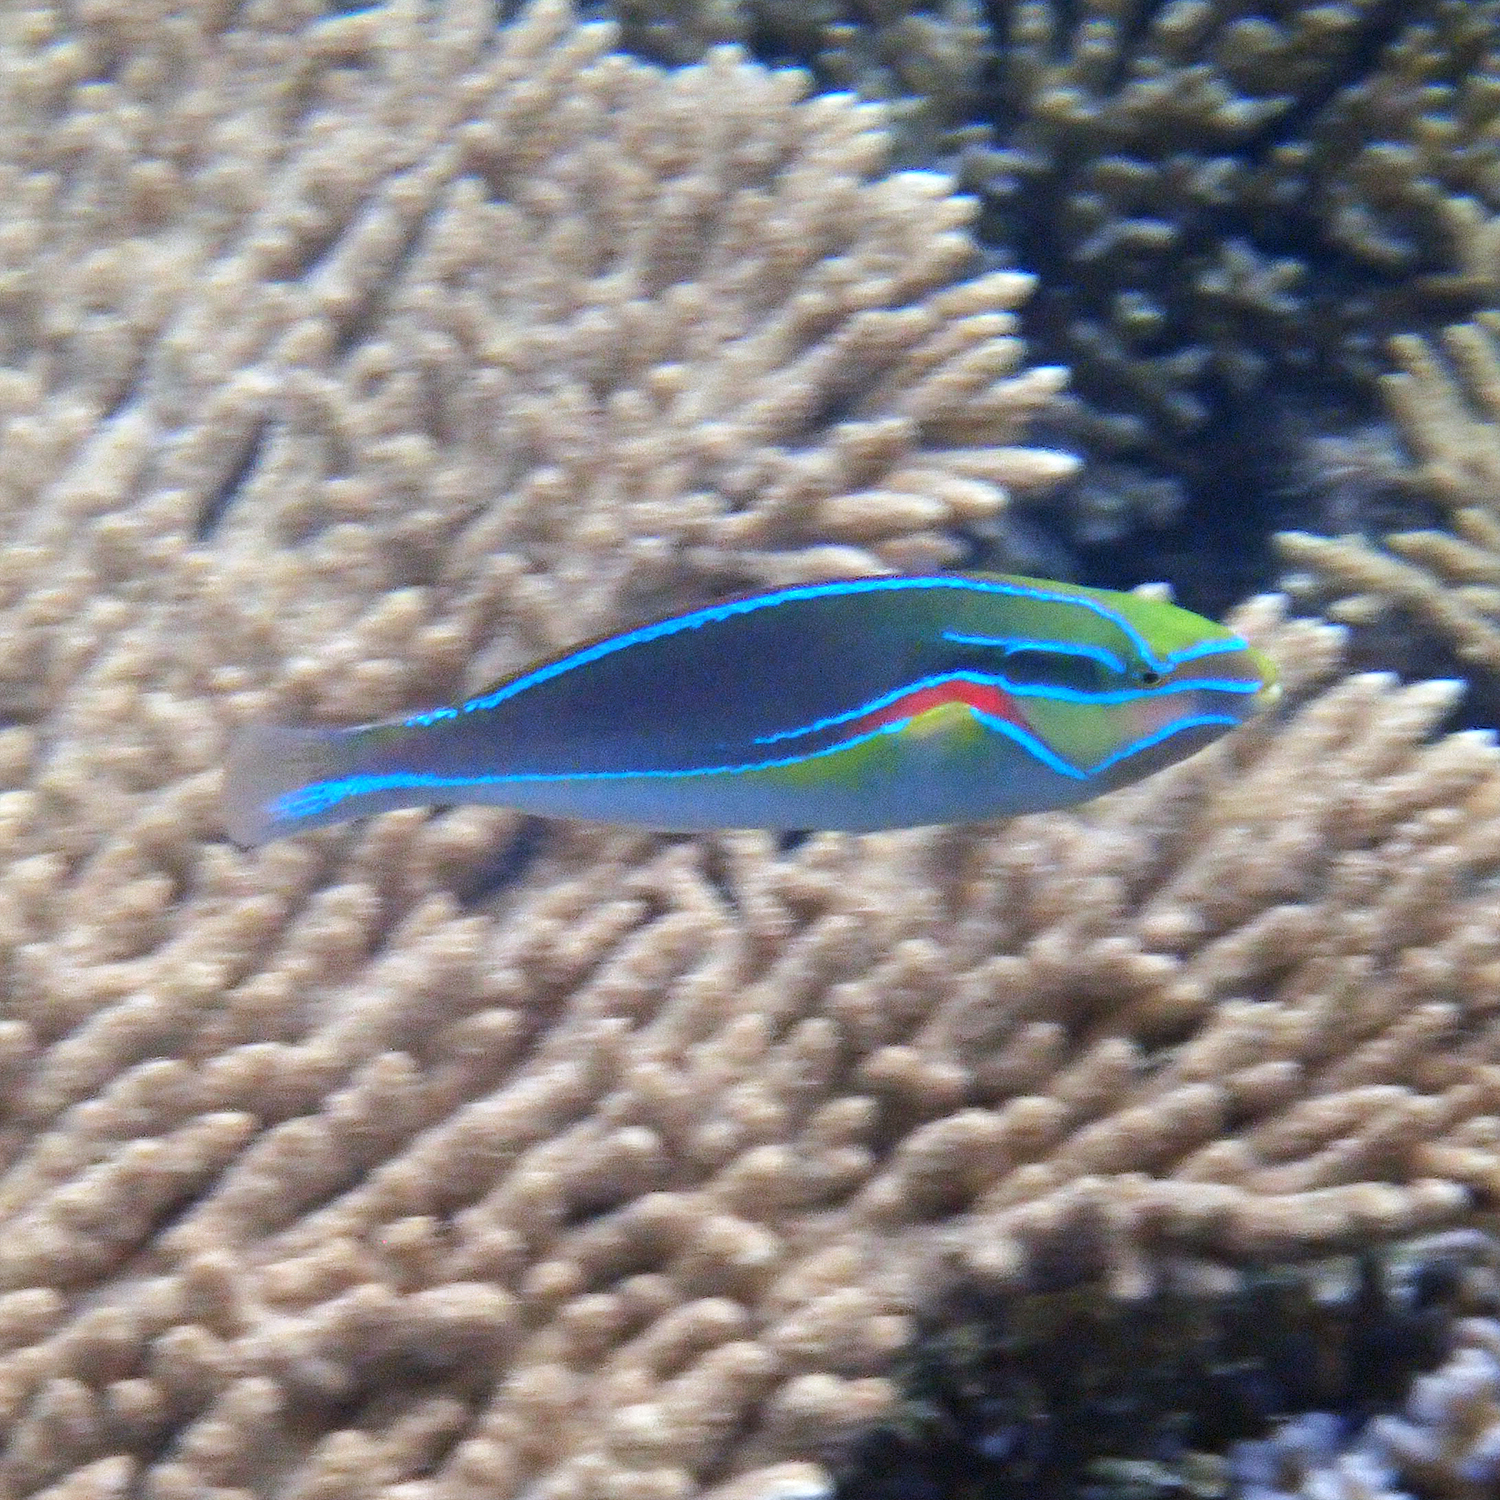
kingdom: Animalia
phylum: Chordata
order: Perciformes
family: Labridae
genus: Stethojulis
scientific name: Stethojulis bandanensis
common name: Red shoulder wrasse
